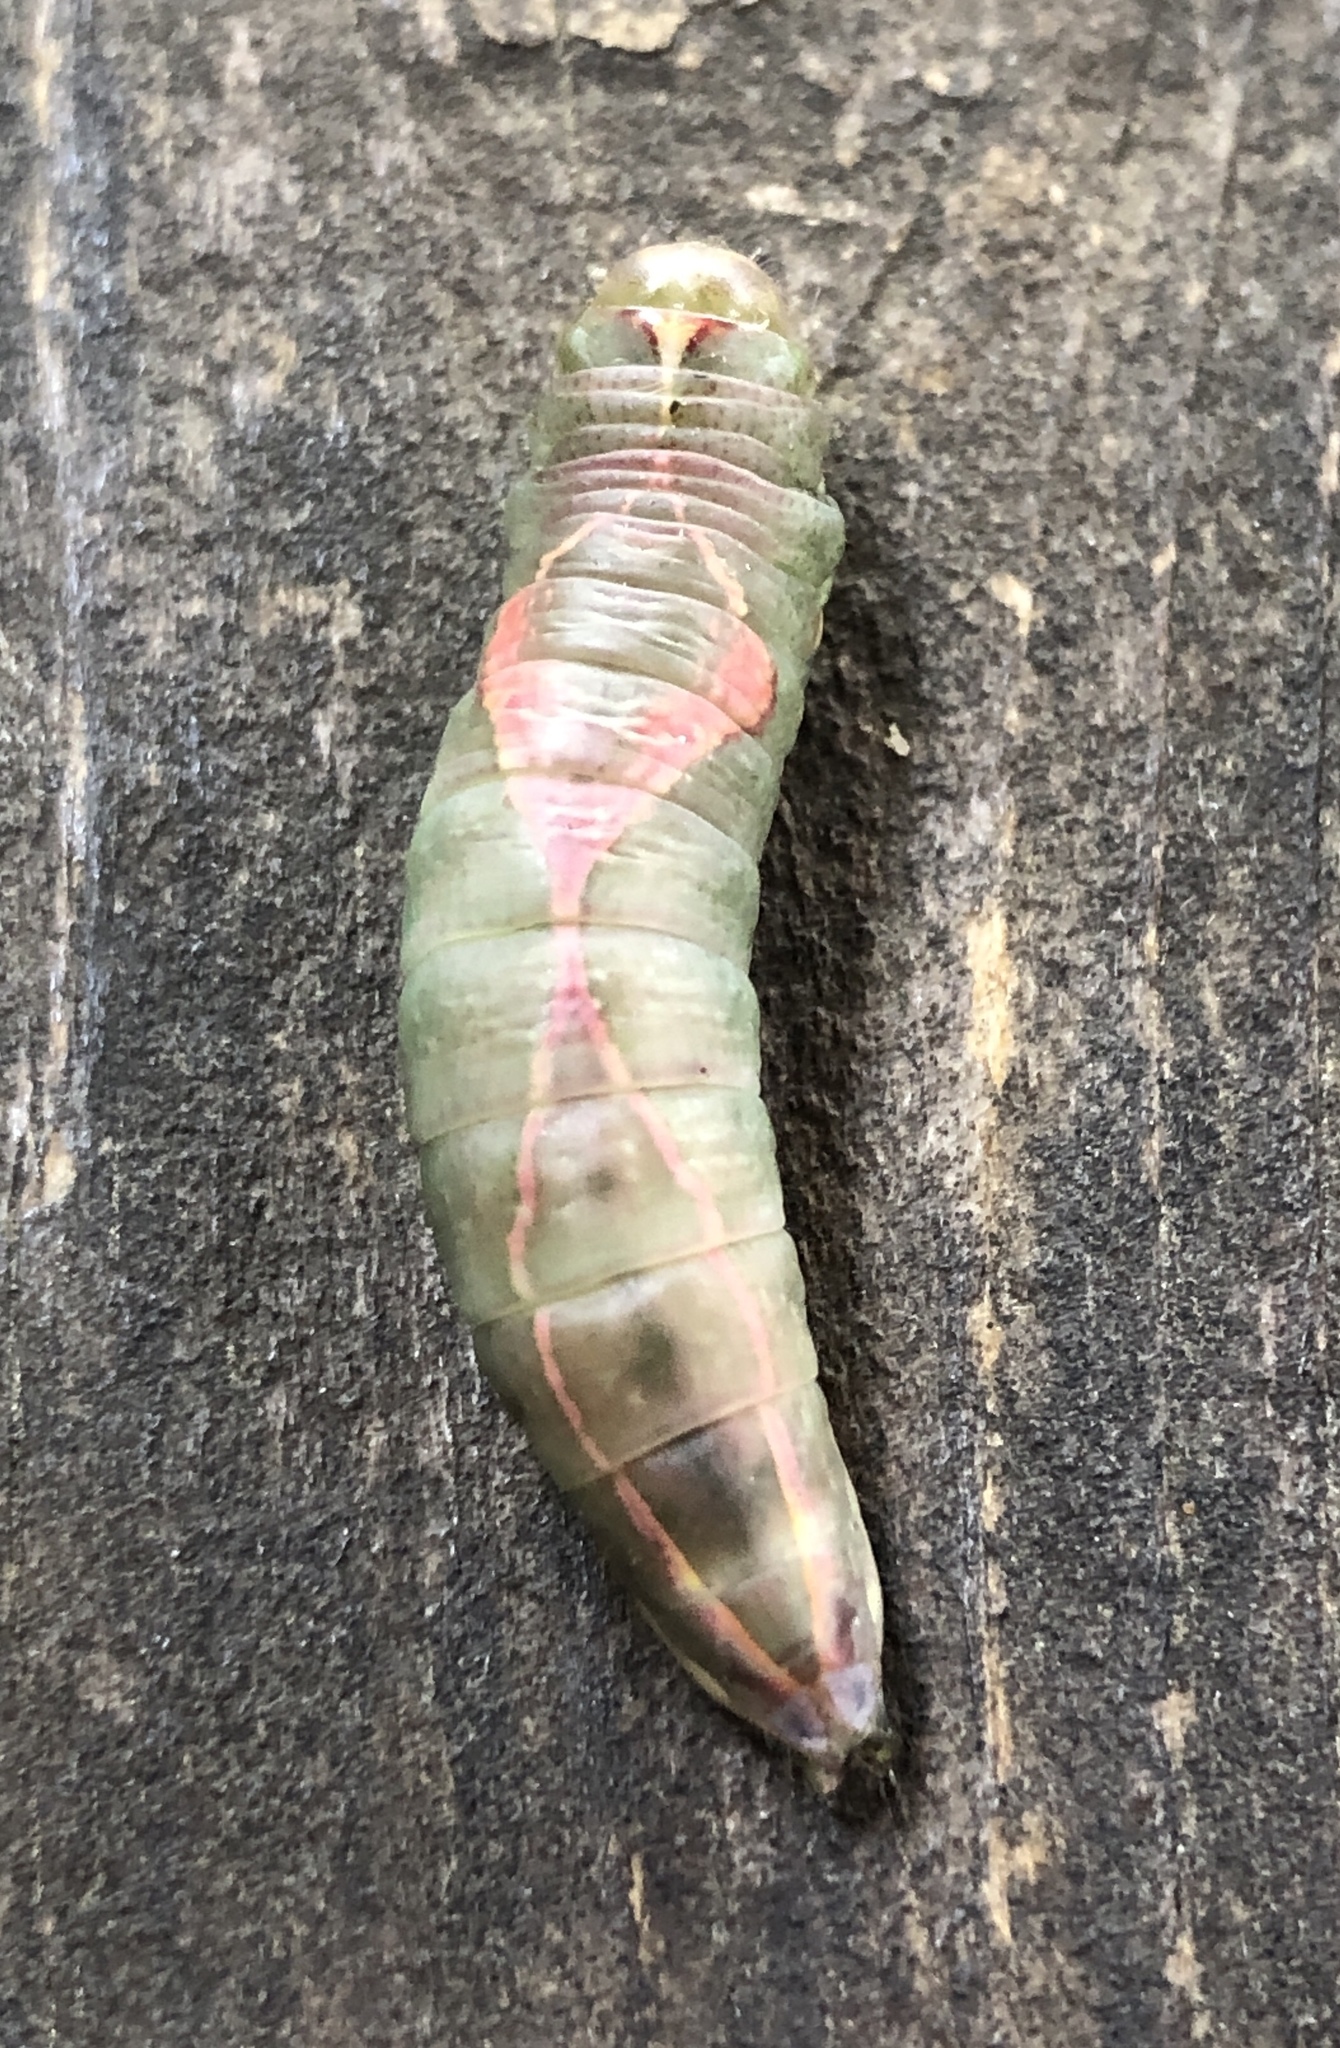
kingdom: Animalia
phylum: Arthropoda
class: Insecta
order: Lepidoptera
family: Notodontidae
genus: Heterocampa
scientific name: Heterocampa obliqua
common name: Oblique heterocampa
